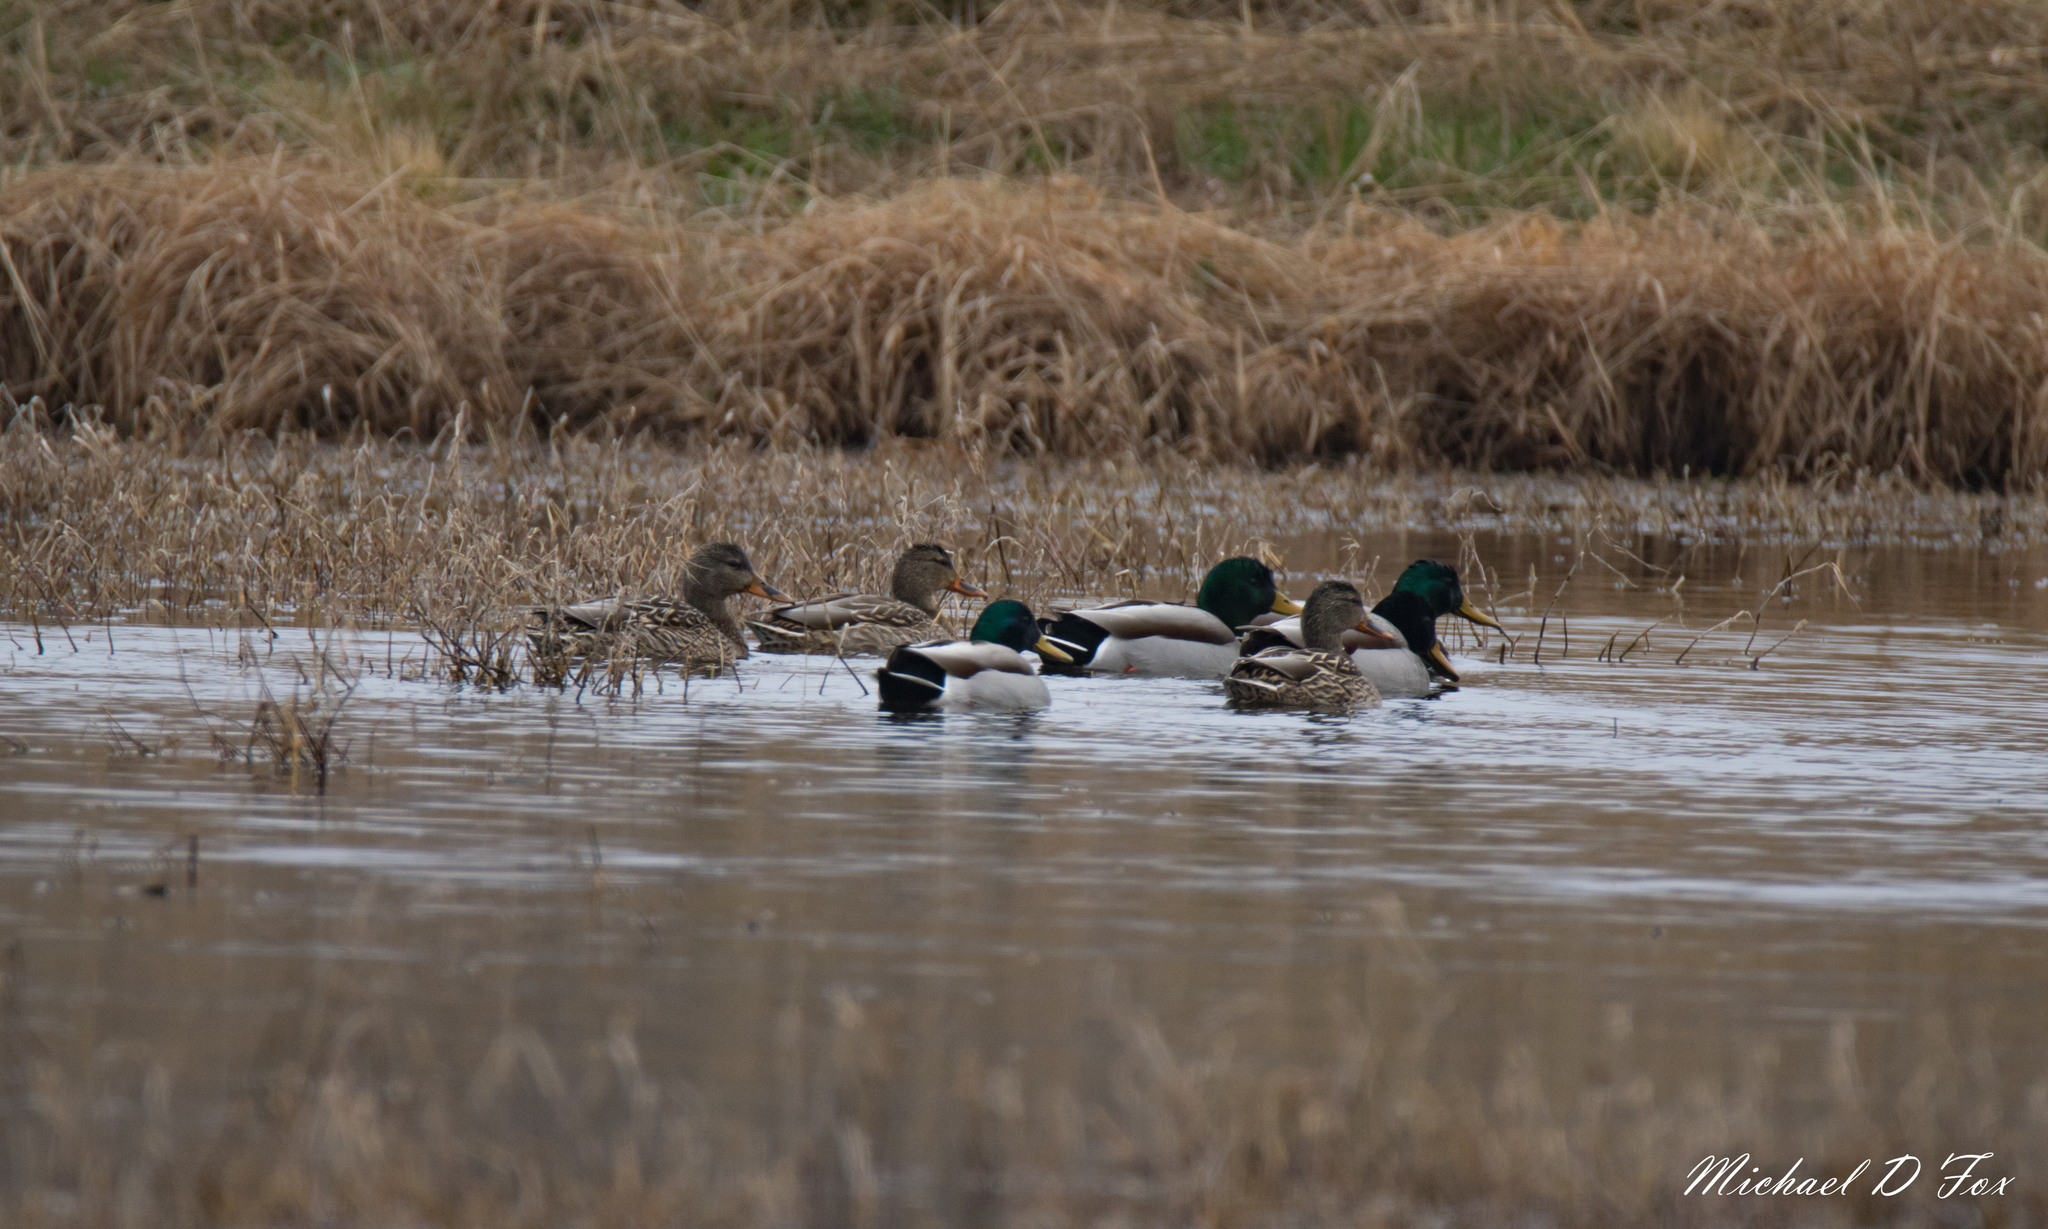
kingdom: Animalia
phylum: Chordata
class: Aves
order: Anseriformes
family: Anatidae
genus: Anas
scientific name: Anas platyrhynchos
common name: Mallard
